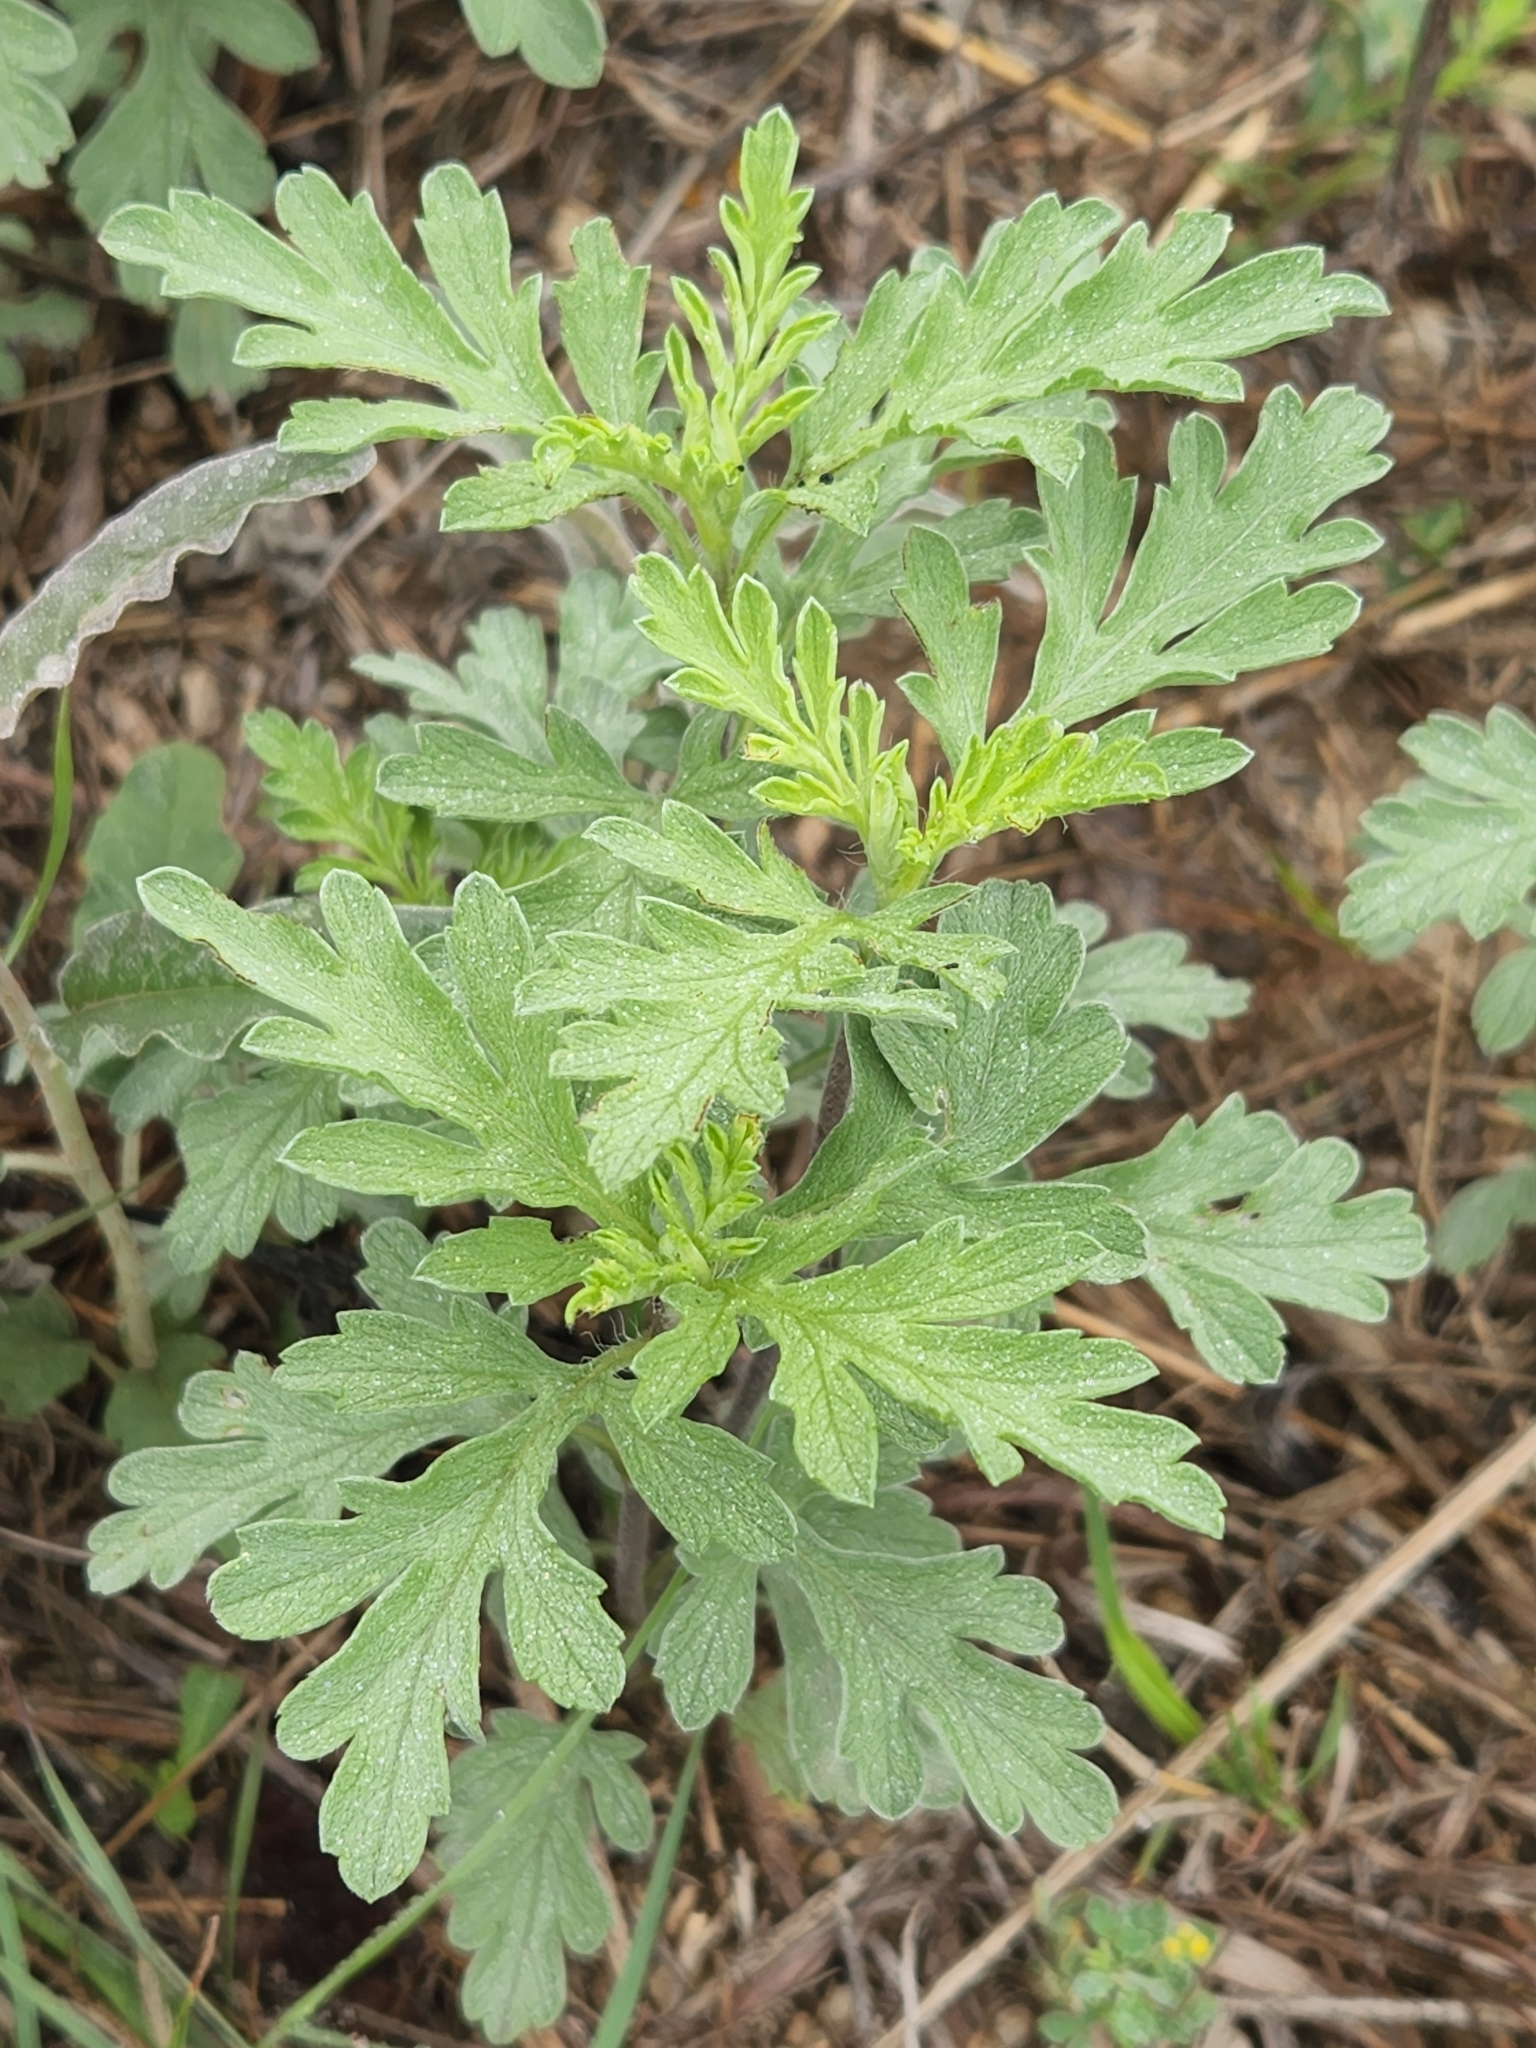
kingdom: Plantae
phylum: Tracheophyta
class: Magnoliopsida
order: Asterales
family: Asteraceae
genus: Ambrosia
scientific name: Ambrosia psilostachya
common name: Perennial ragweed
